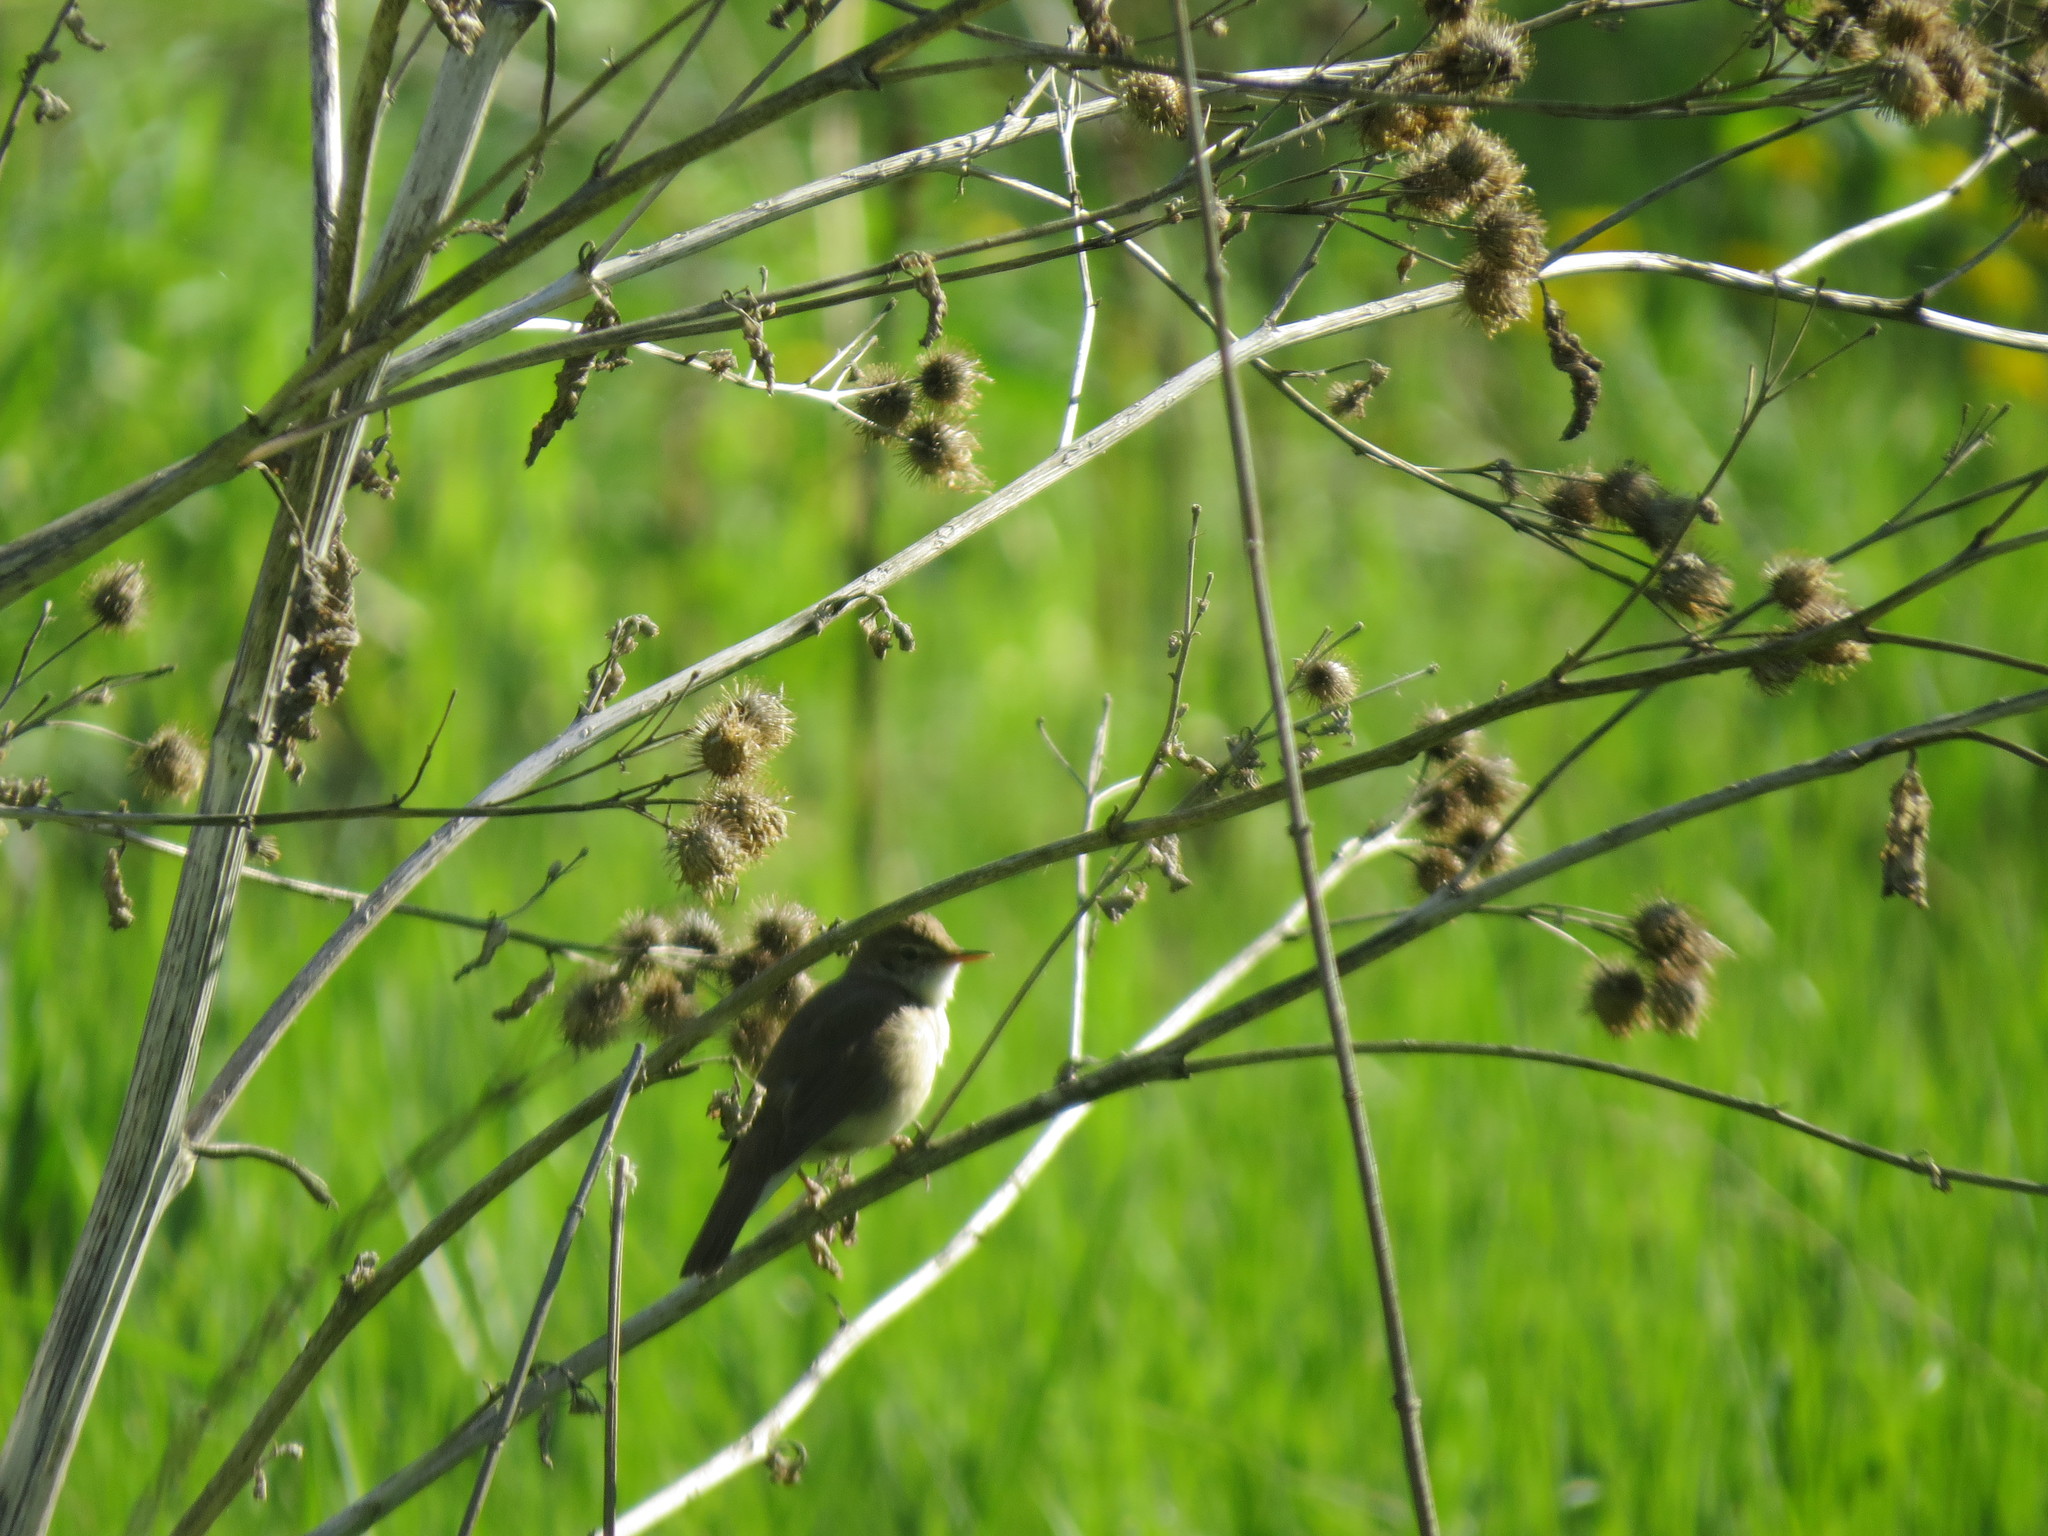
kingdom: Animalia
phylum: Chordata
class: Aves
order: Passeriformes
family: Acrocephalidae
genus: Acrocephalus
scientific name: Acrocephalus dumetorum
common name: Blyth's reed warbler
